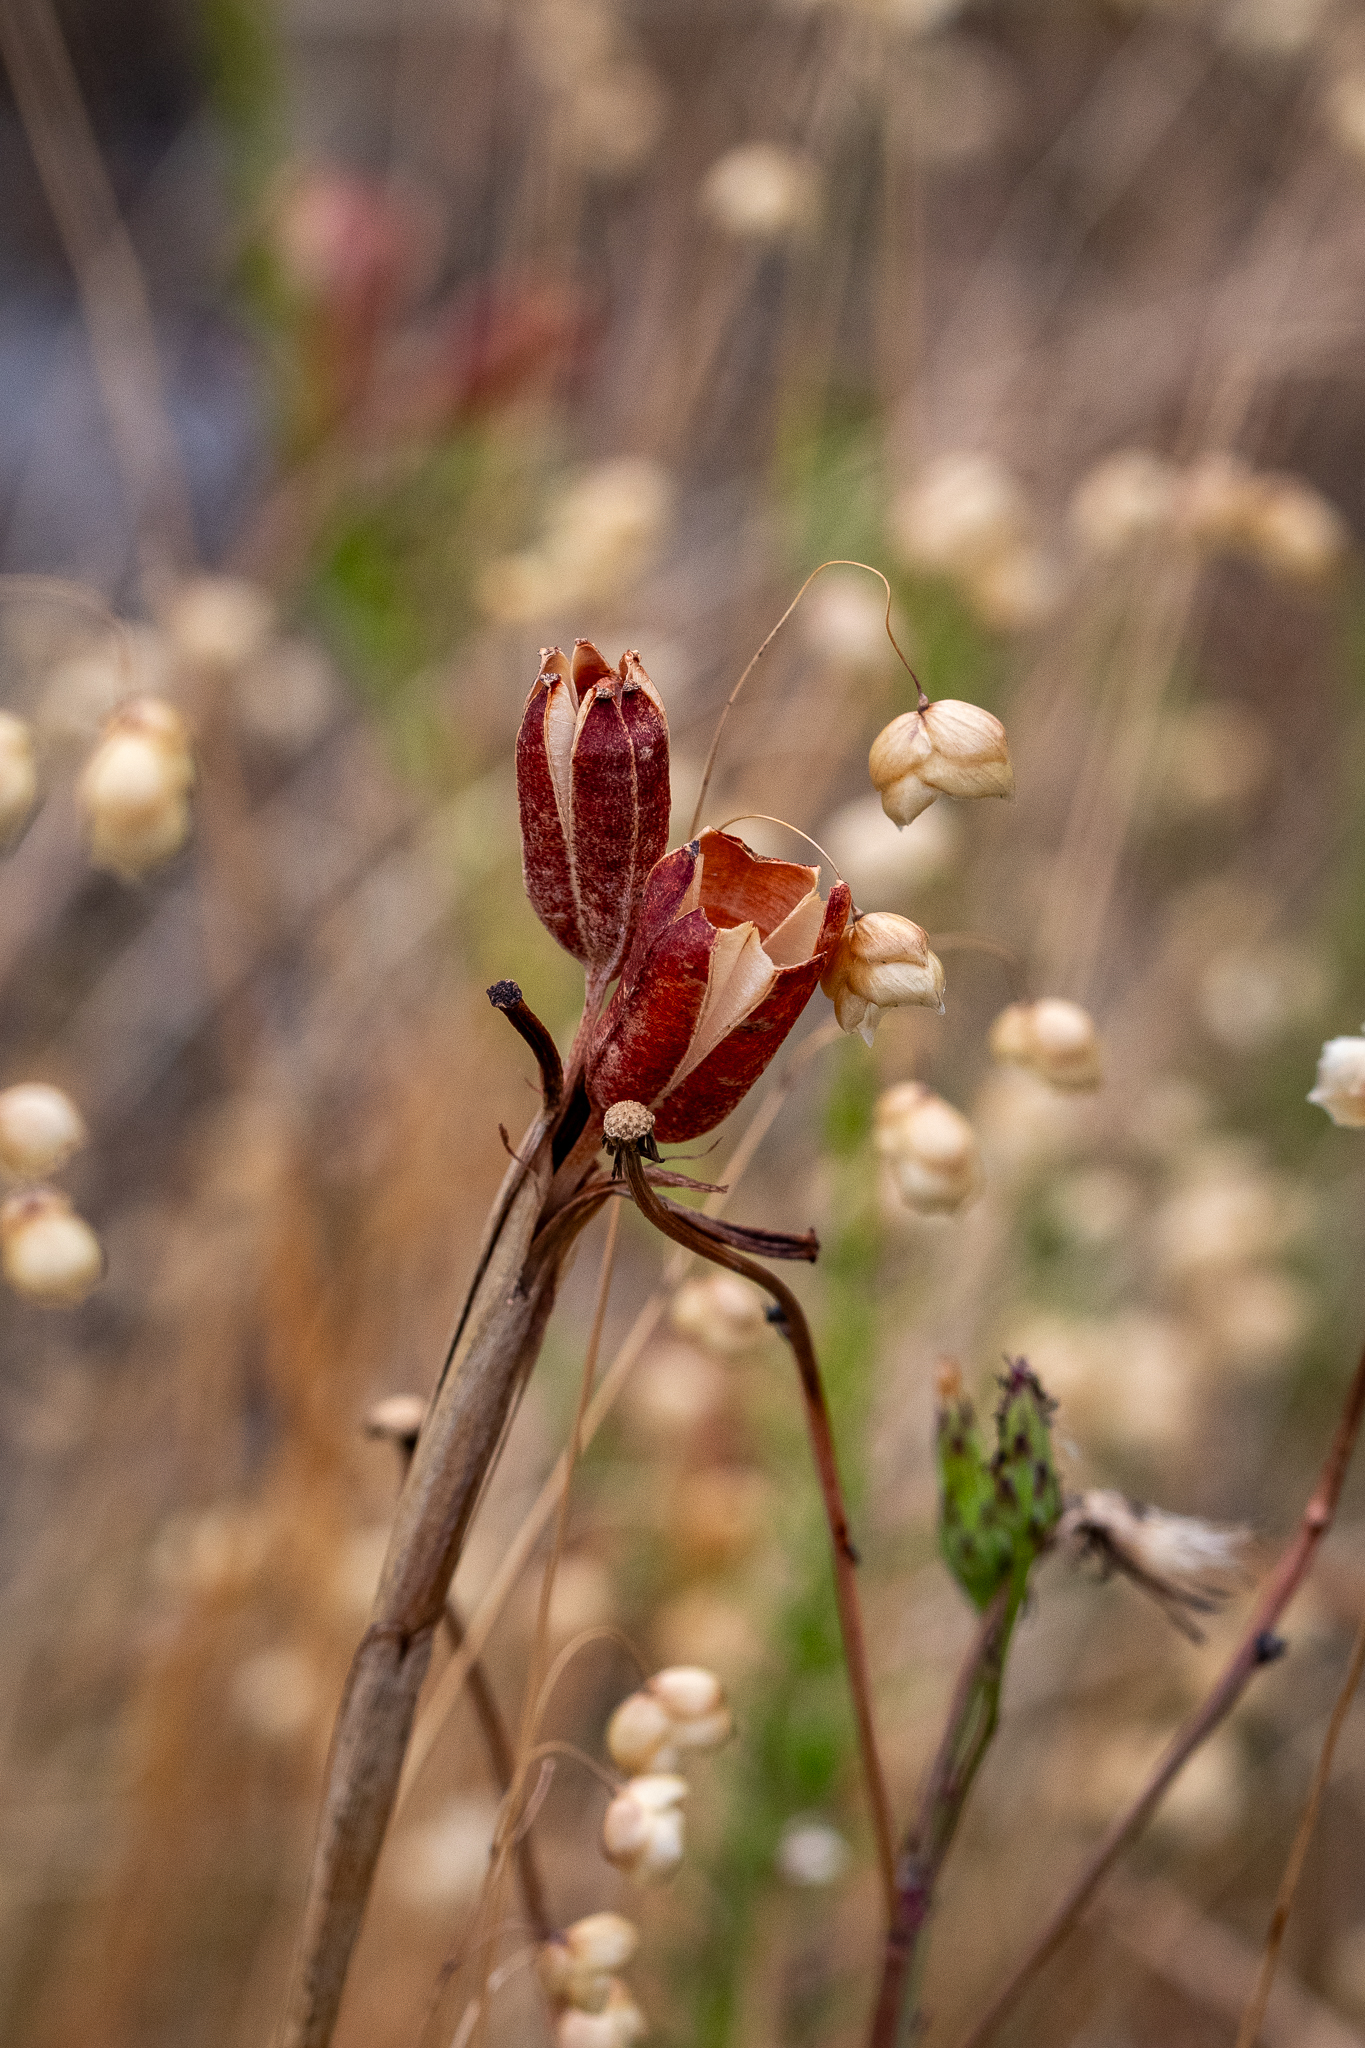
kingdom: Plantae
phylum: Tracheophyta
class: Liliopsida
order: Asparagales
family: Iridaceae
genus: Moraea
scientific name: Moraea neglecta
